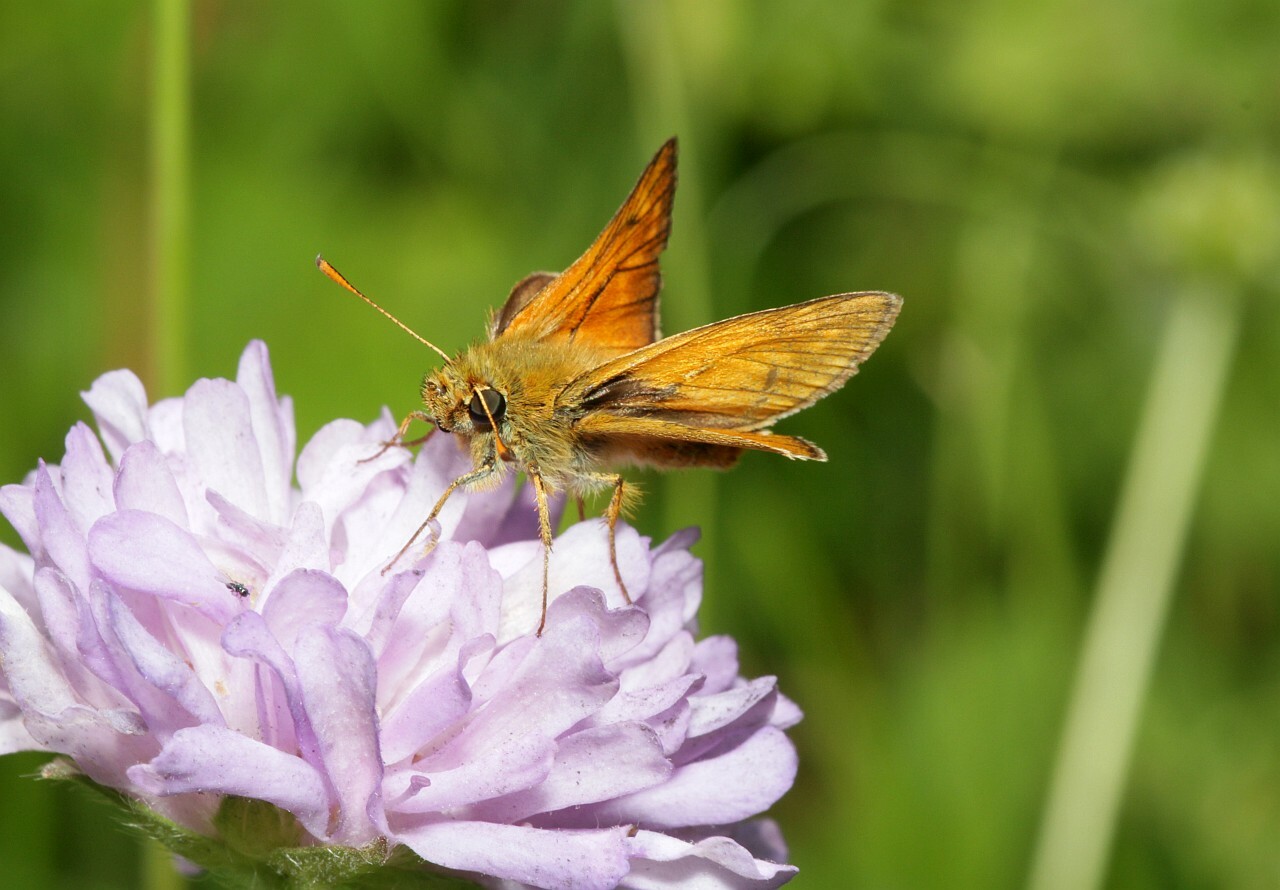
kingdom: Animalia
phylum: Arthropoda
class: Insecta
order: Lepidoptera
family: Hesperiidae
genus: Ochlodes
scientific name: Ochlodes venata
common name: Large skipper
